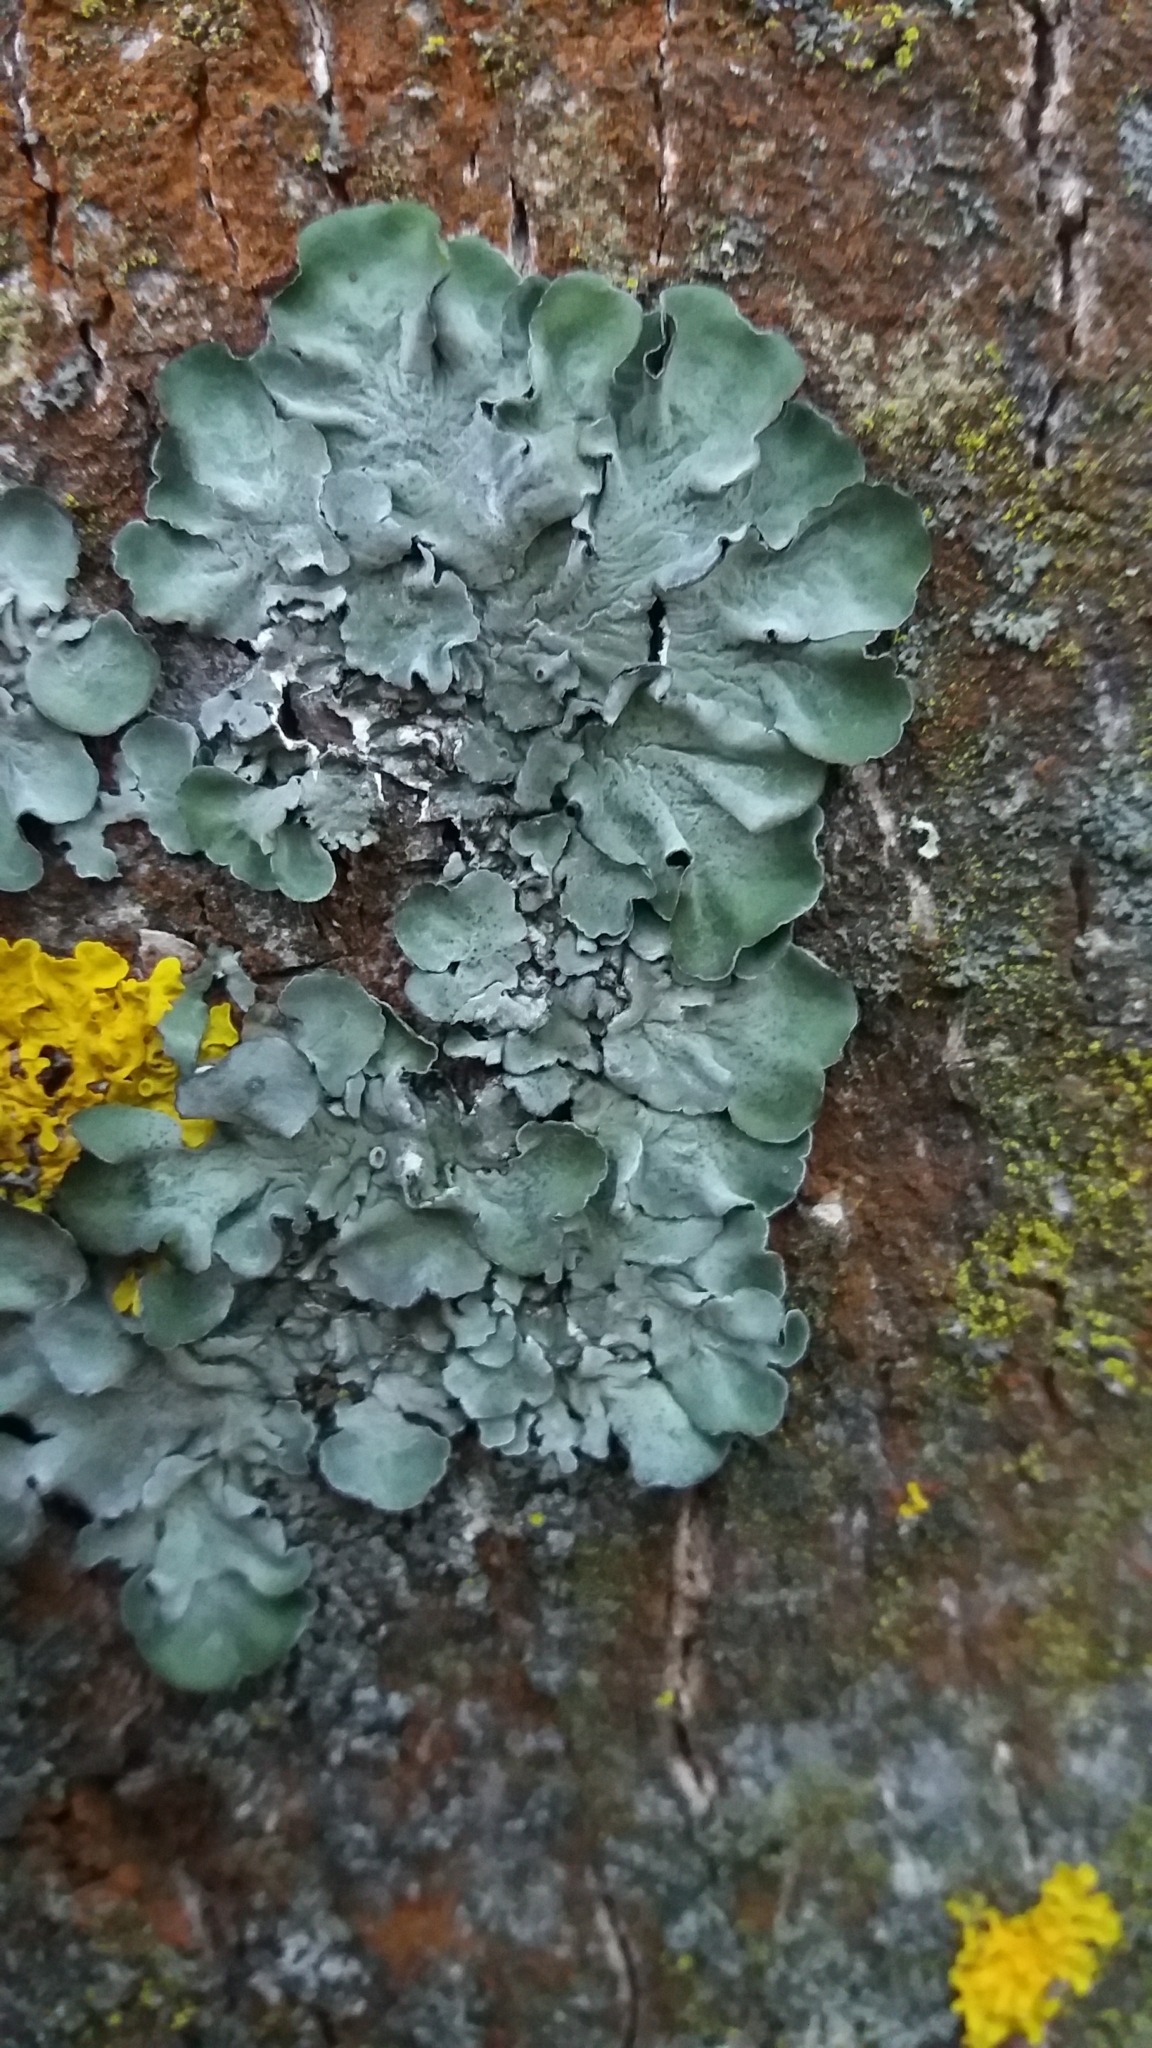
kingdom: Fungi
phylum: Ascomycota
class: Lecanoromycetes
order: Lecanorales
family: Parmeliaceae
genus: Pleurosticta
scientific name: Pleurosticta acetabulum
